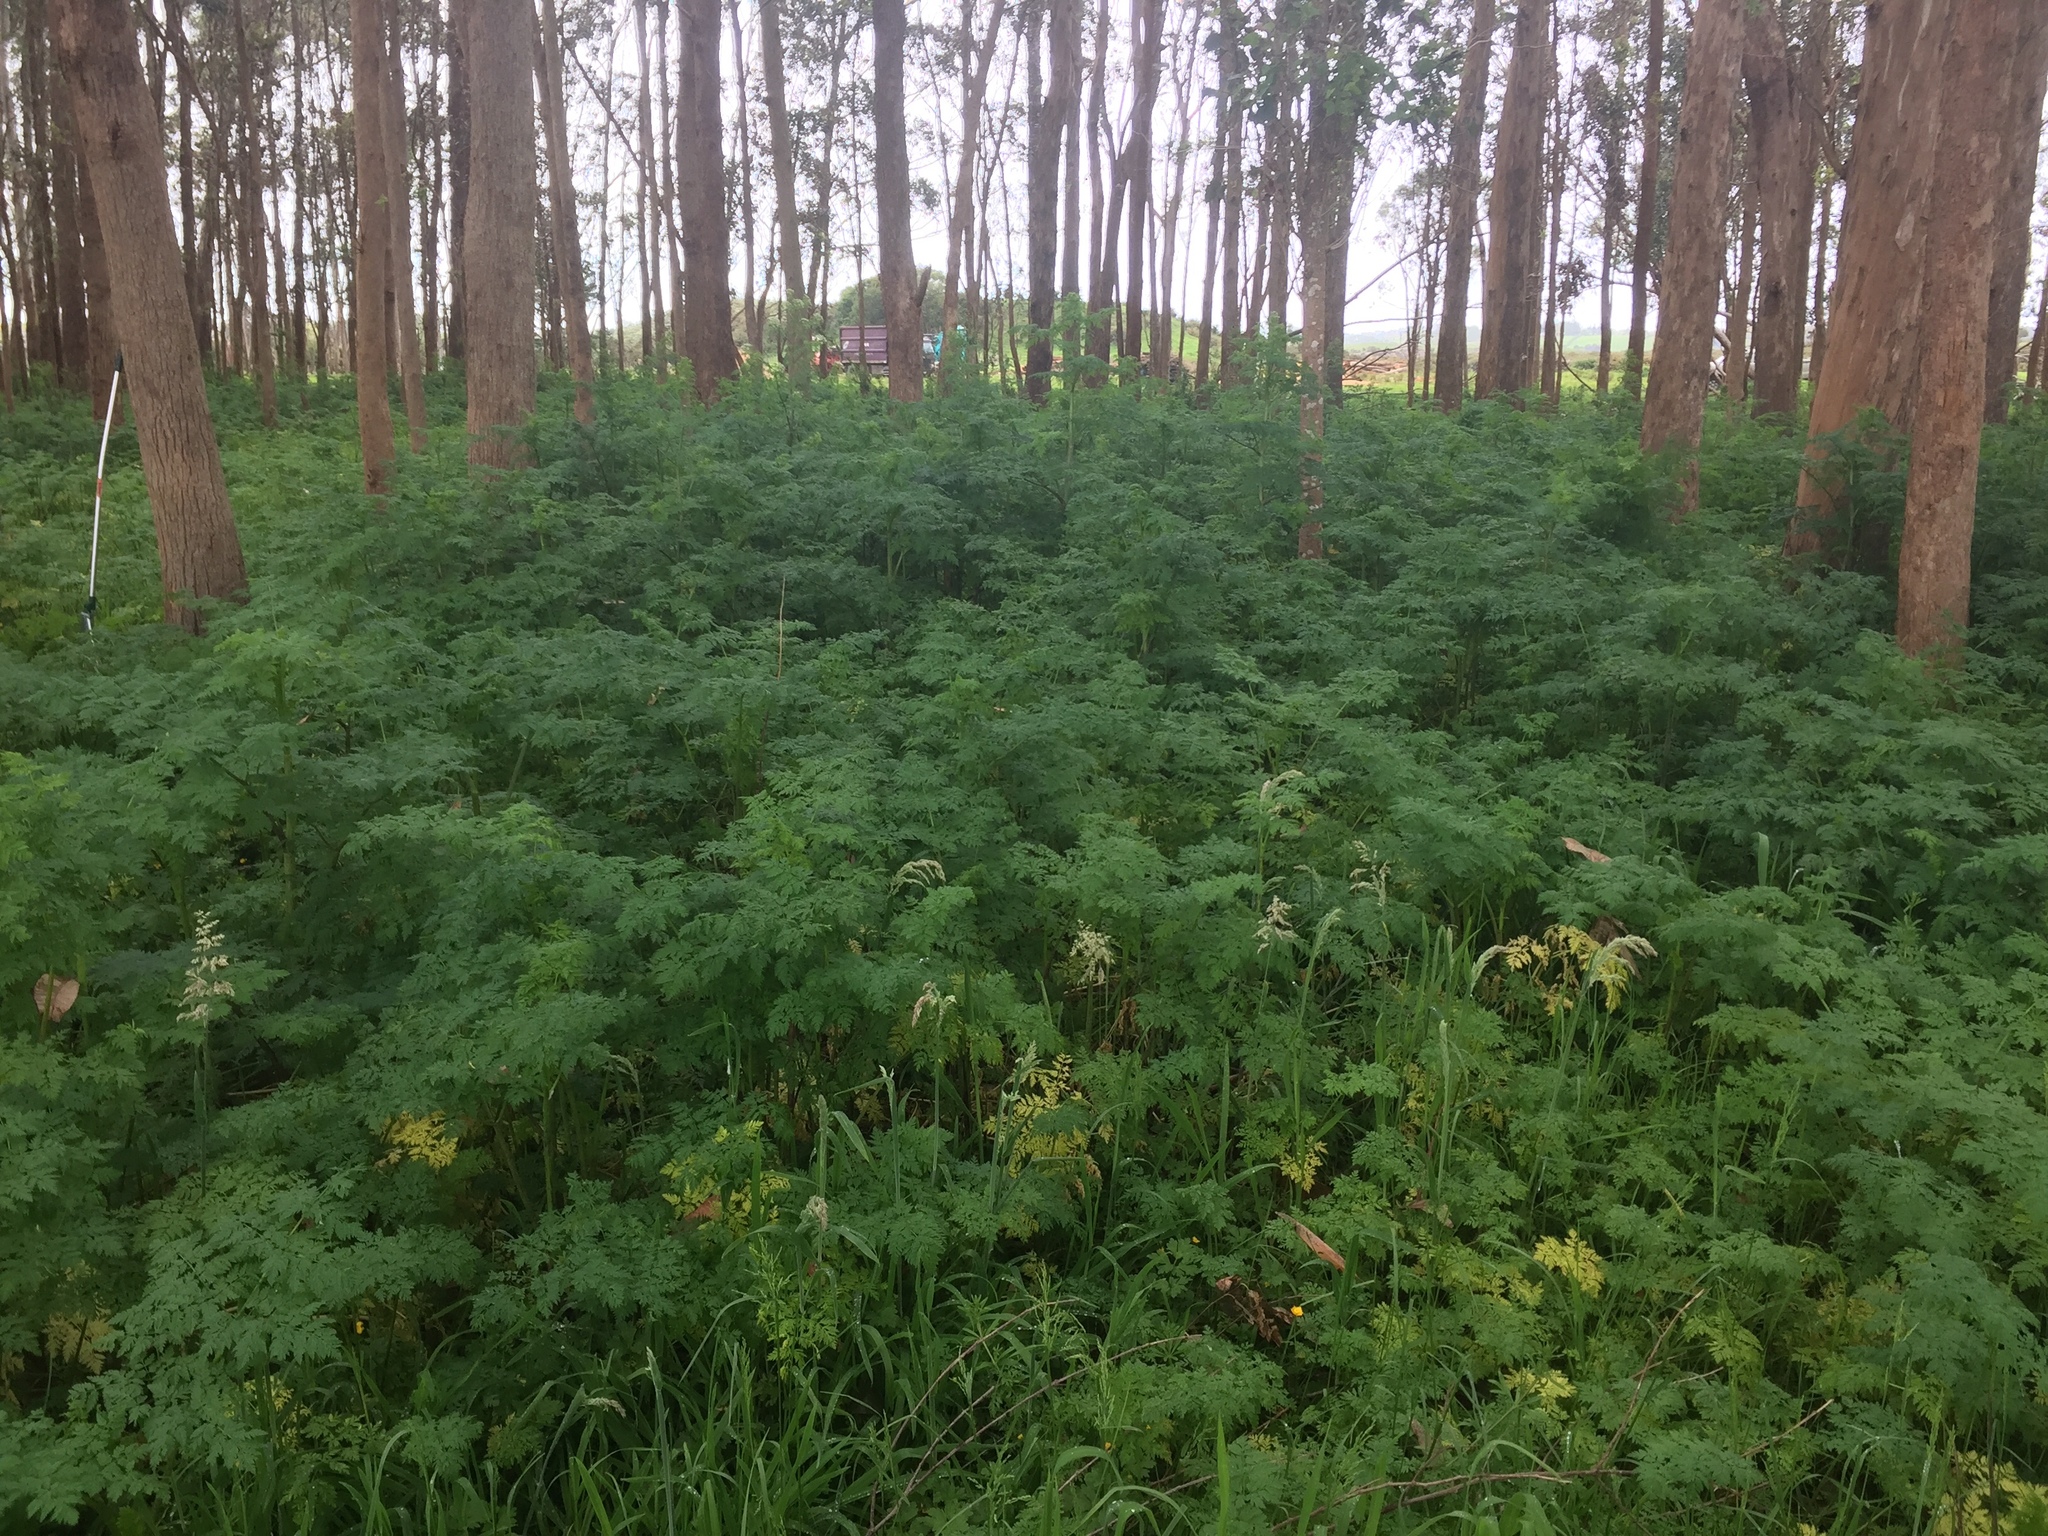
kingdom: Plantae
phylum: Tracheophyta
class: Magnoliopsida
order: Apiales
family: Apiaceae
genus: Conium
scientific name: Conium maculatum
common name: Hemlock
